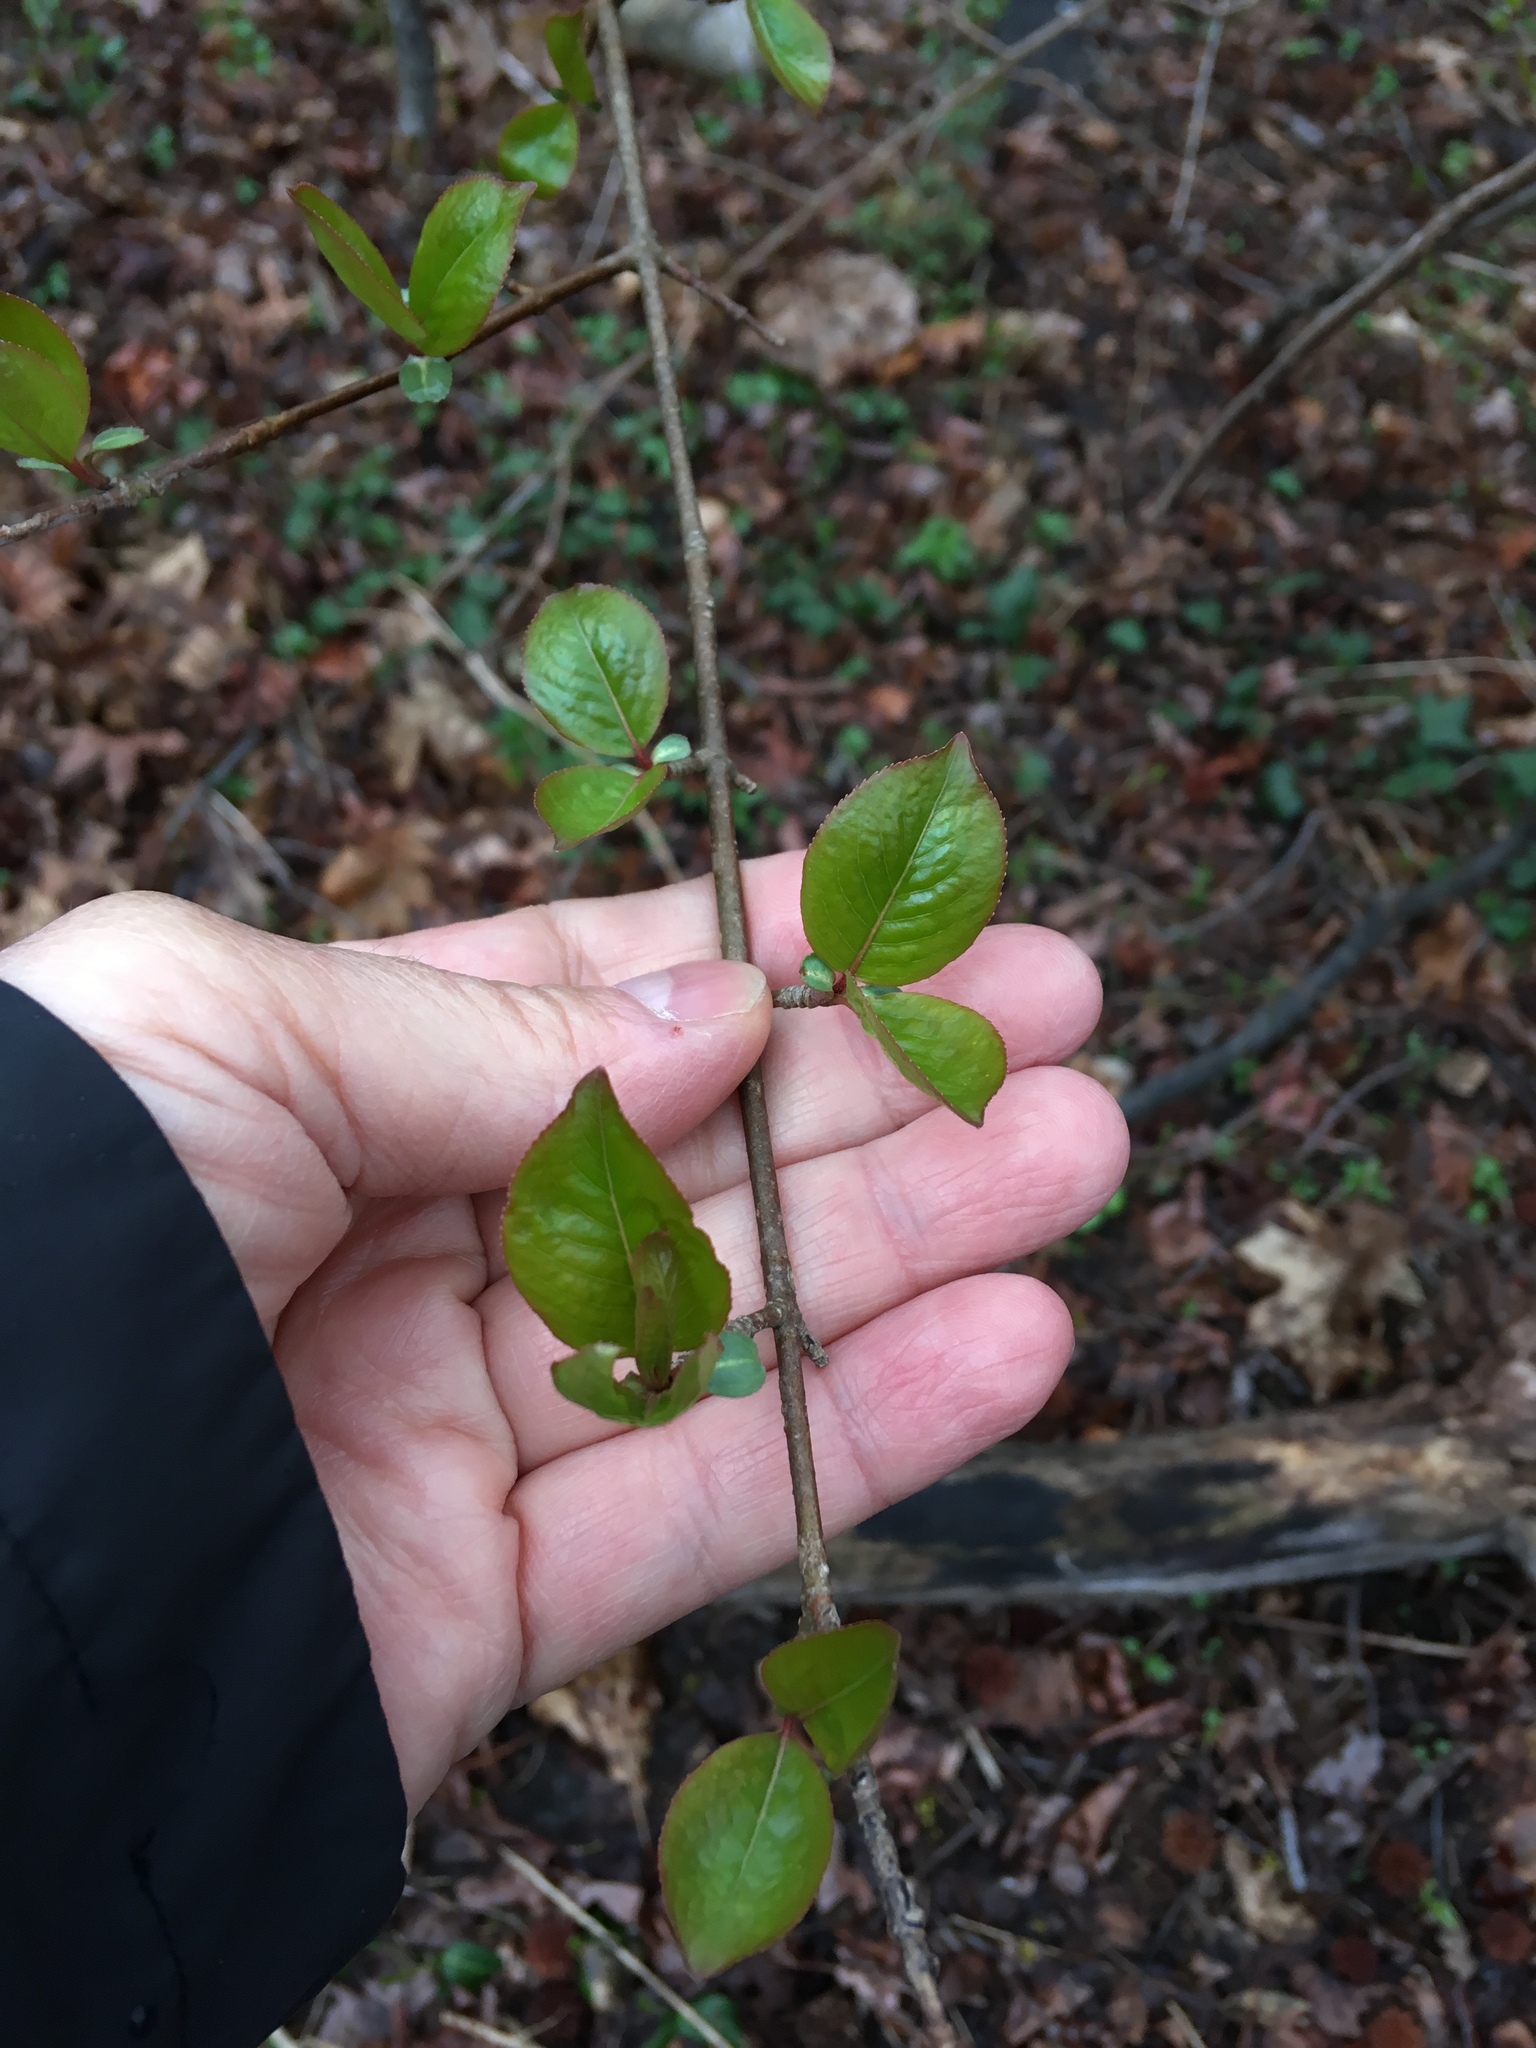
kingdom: Plantae
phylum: Tracheophyta
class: Magnoliopsida
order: Dipsacales
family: Viburnaceae
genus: Viburnum
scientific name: Viburnum prunifolium
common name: Black haw
